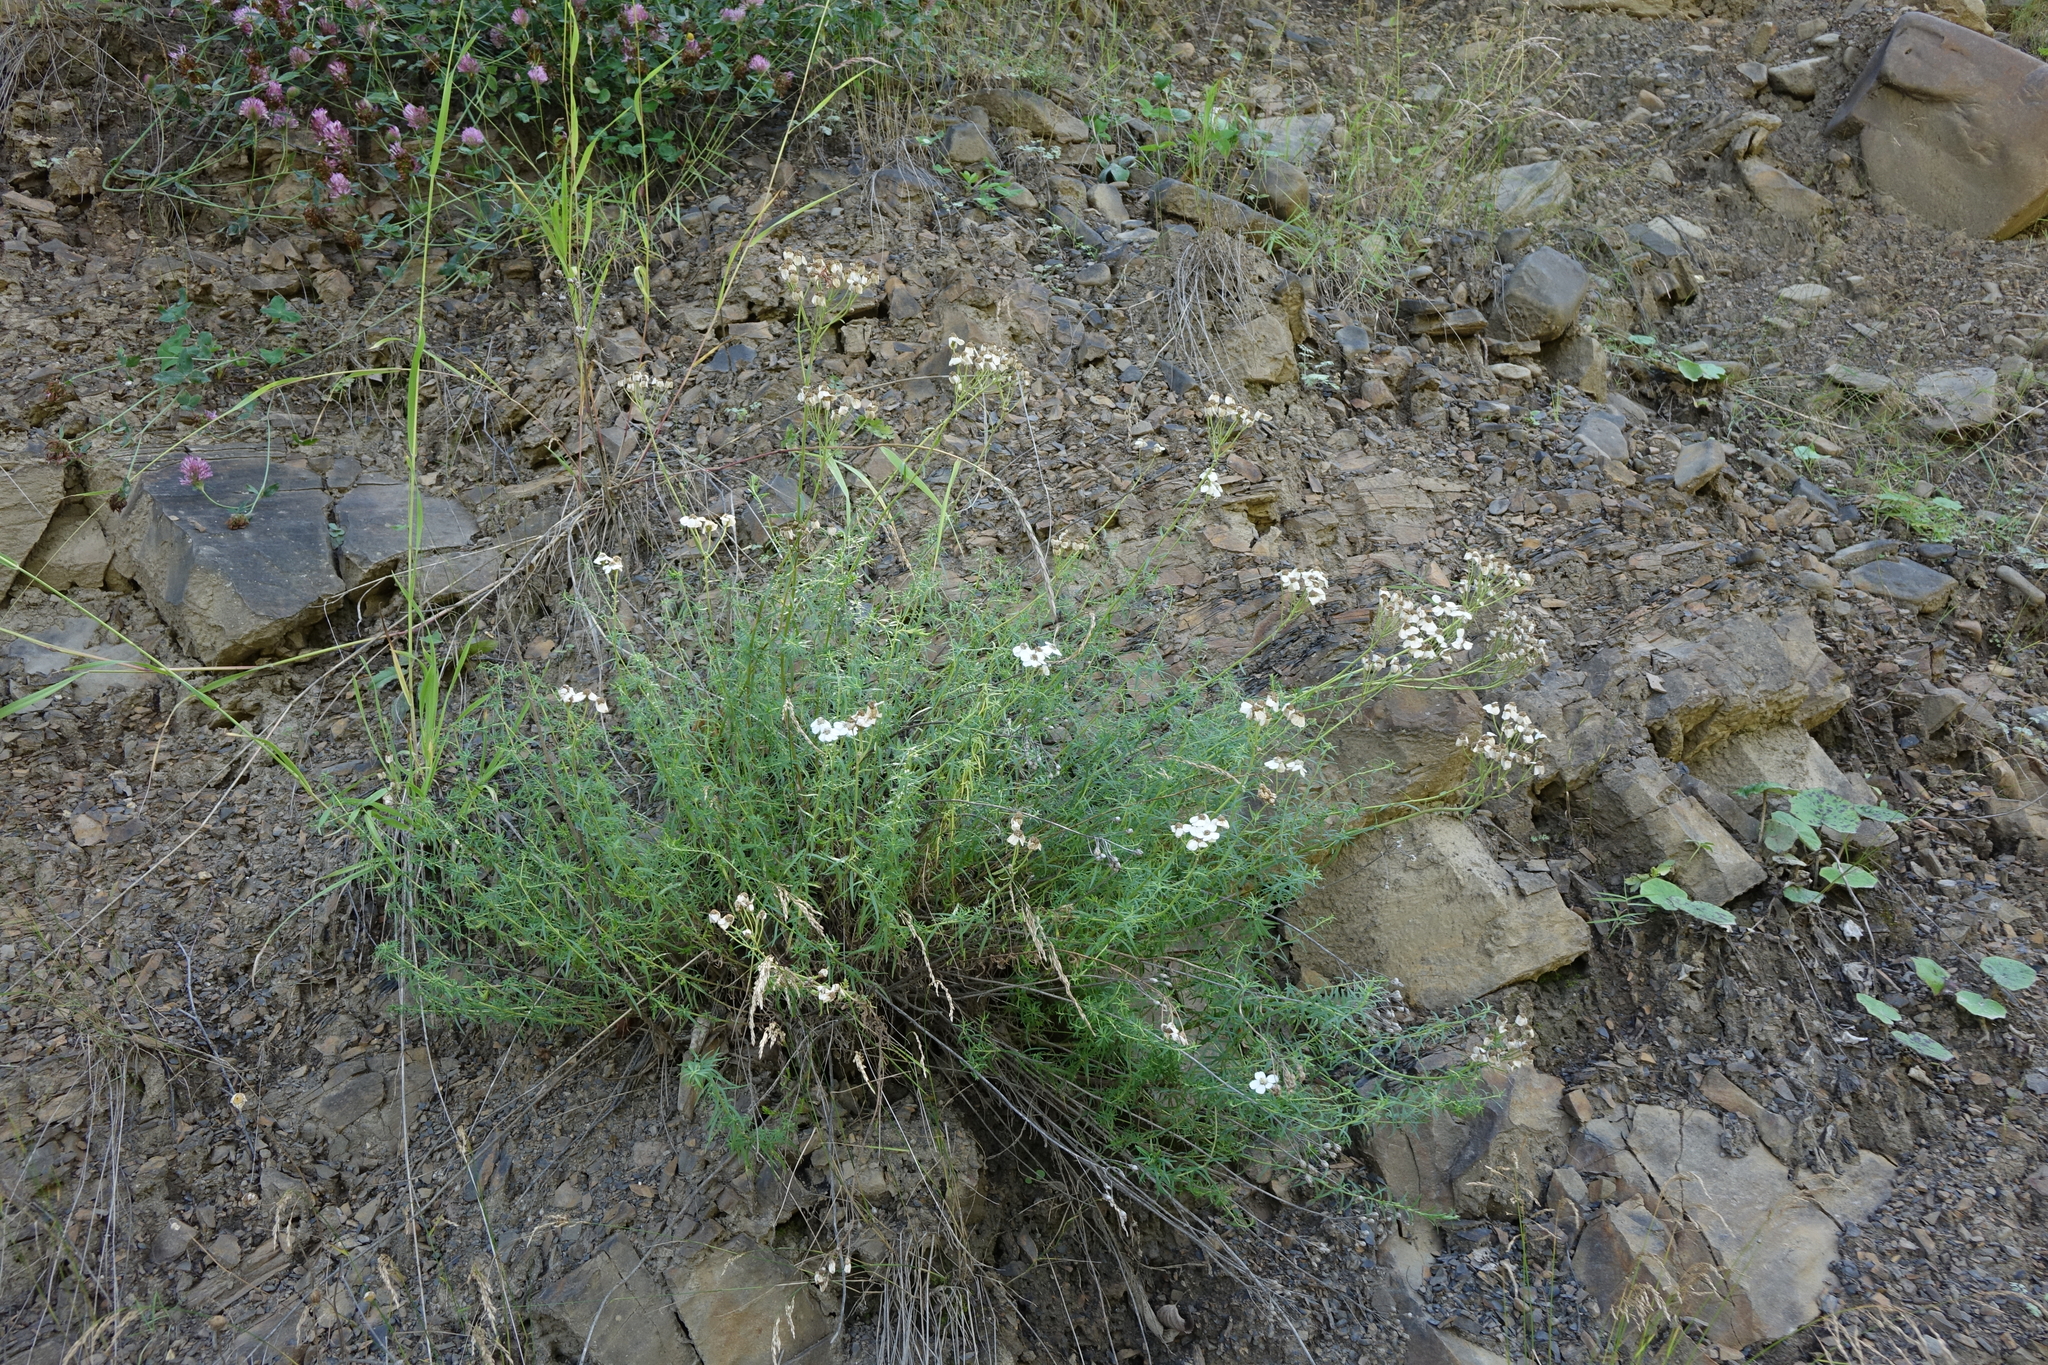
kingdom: Plantae
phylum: Tracheophyta
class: Magnoliopsida
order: Asterales
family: Asteraceae
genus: Achillea
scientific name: Achillea ptarmicifolia
